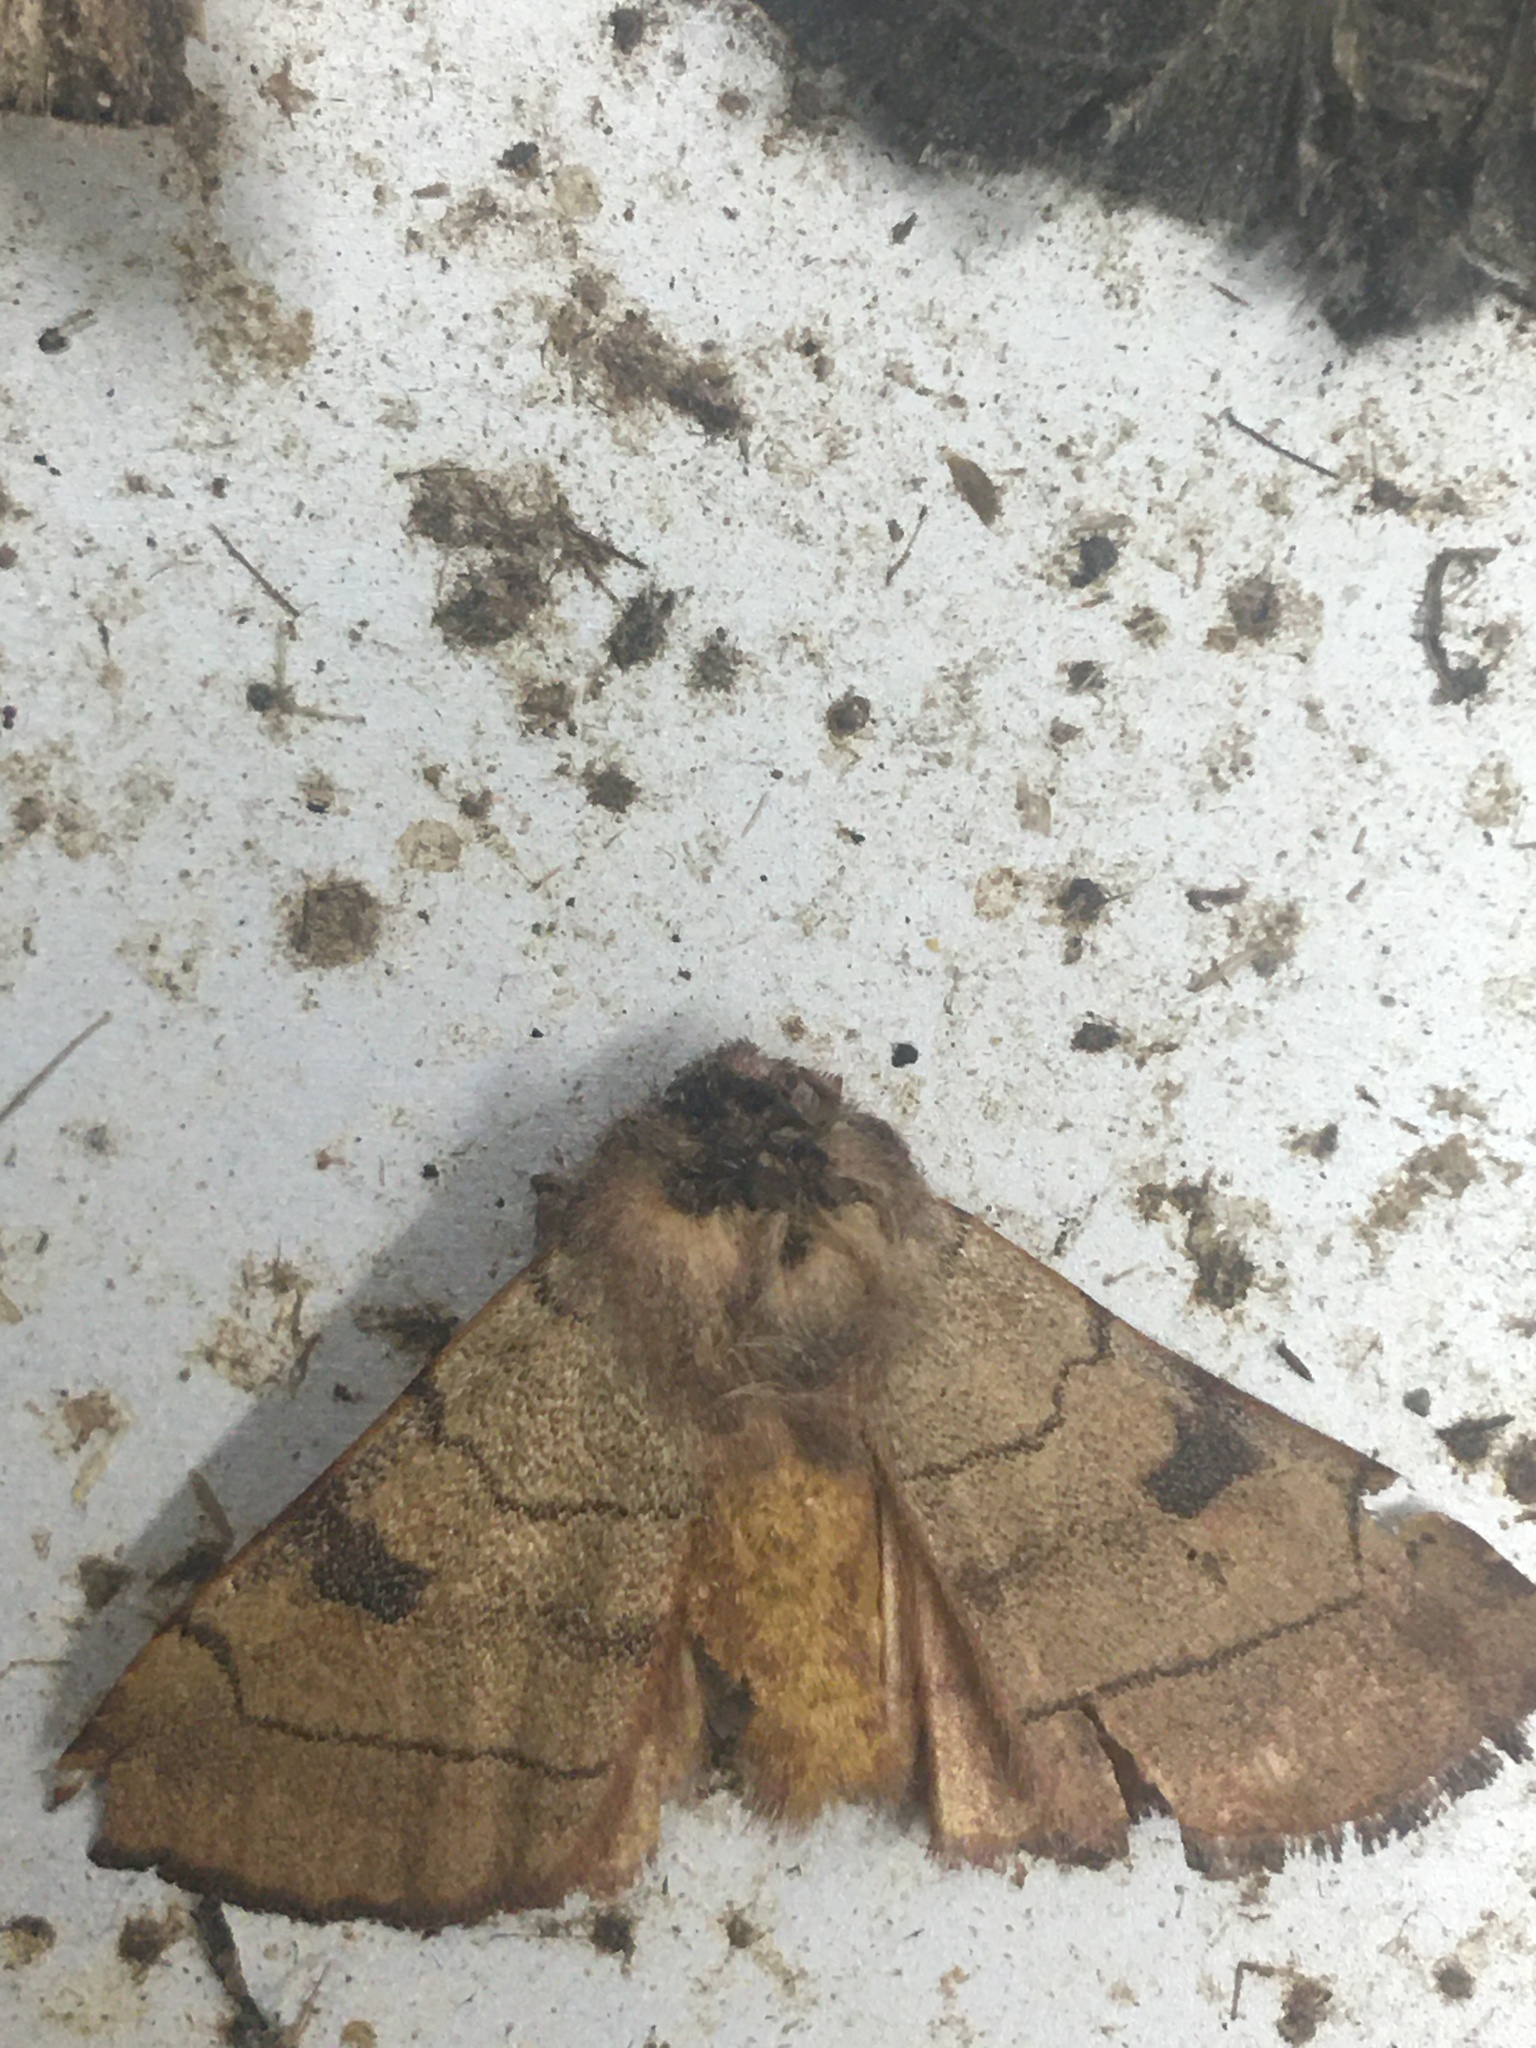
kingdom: Animalia
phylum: Arthropoda
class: Insecta
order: Lepidoptera
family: Noctuidae
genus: Choephora
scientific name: Choephora fungorum
